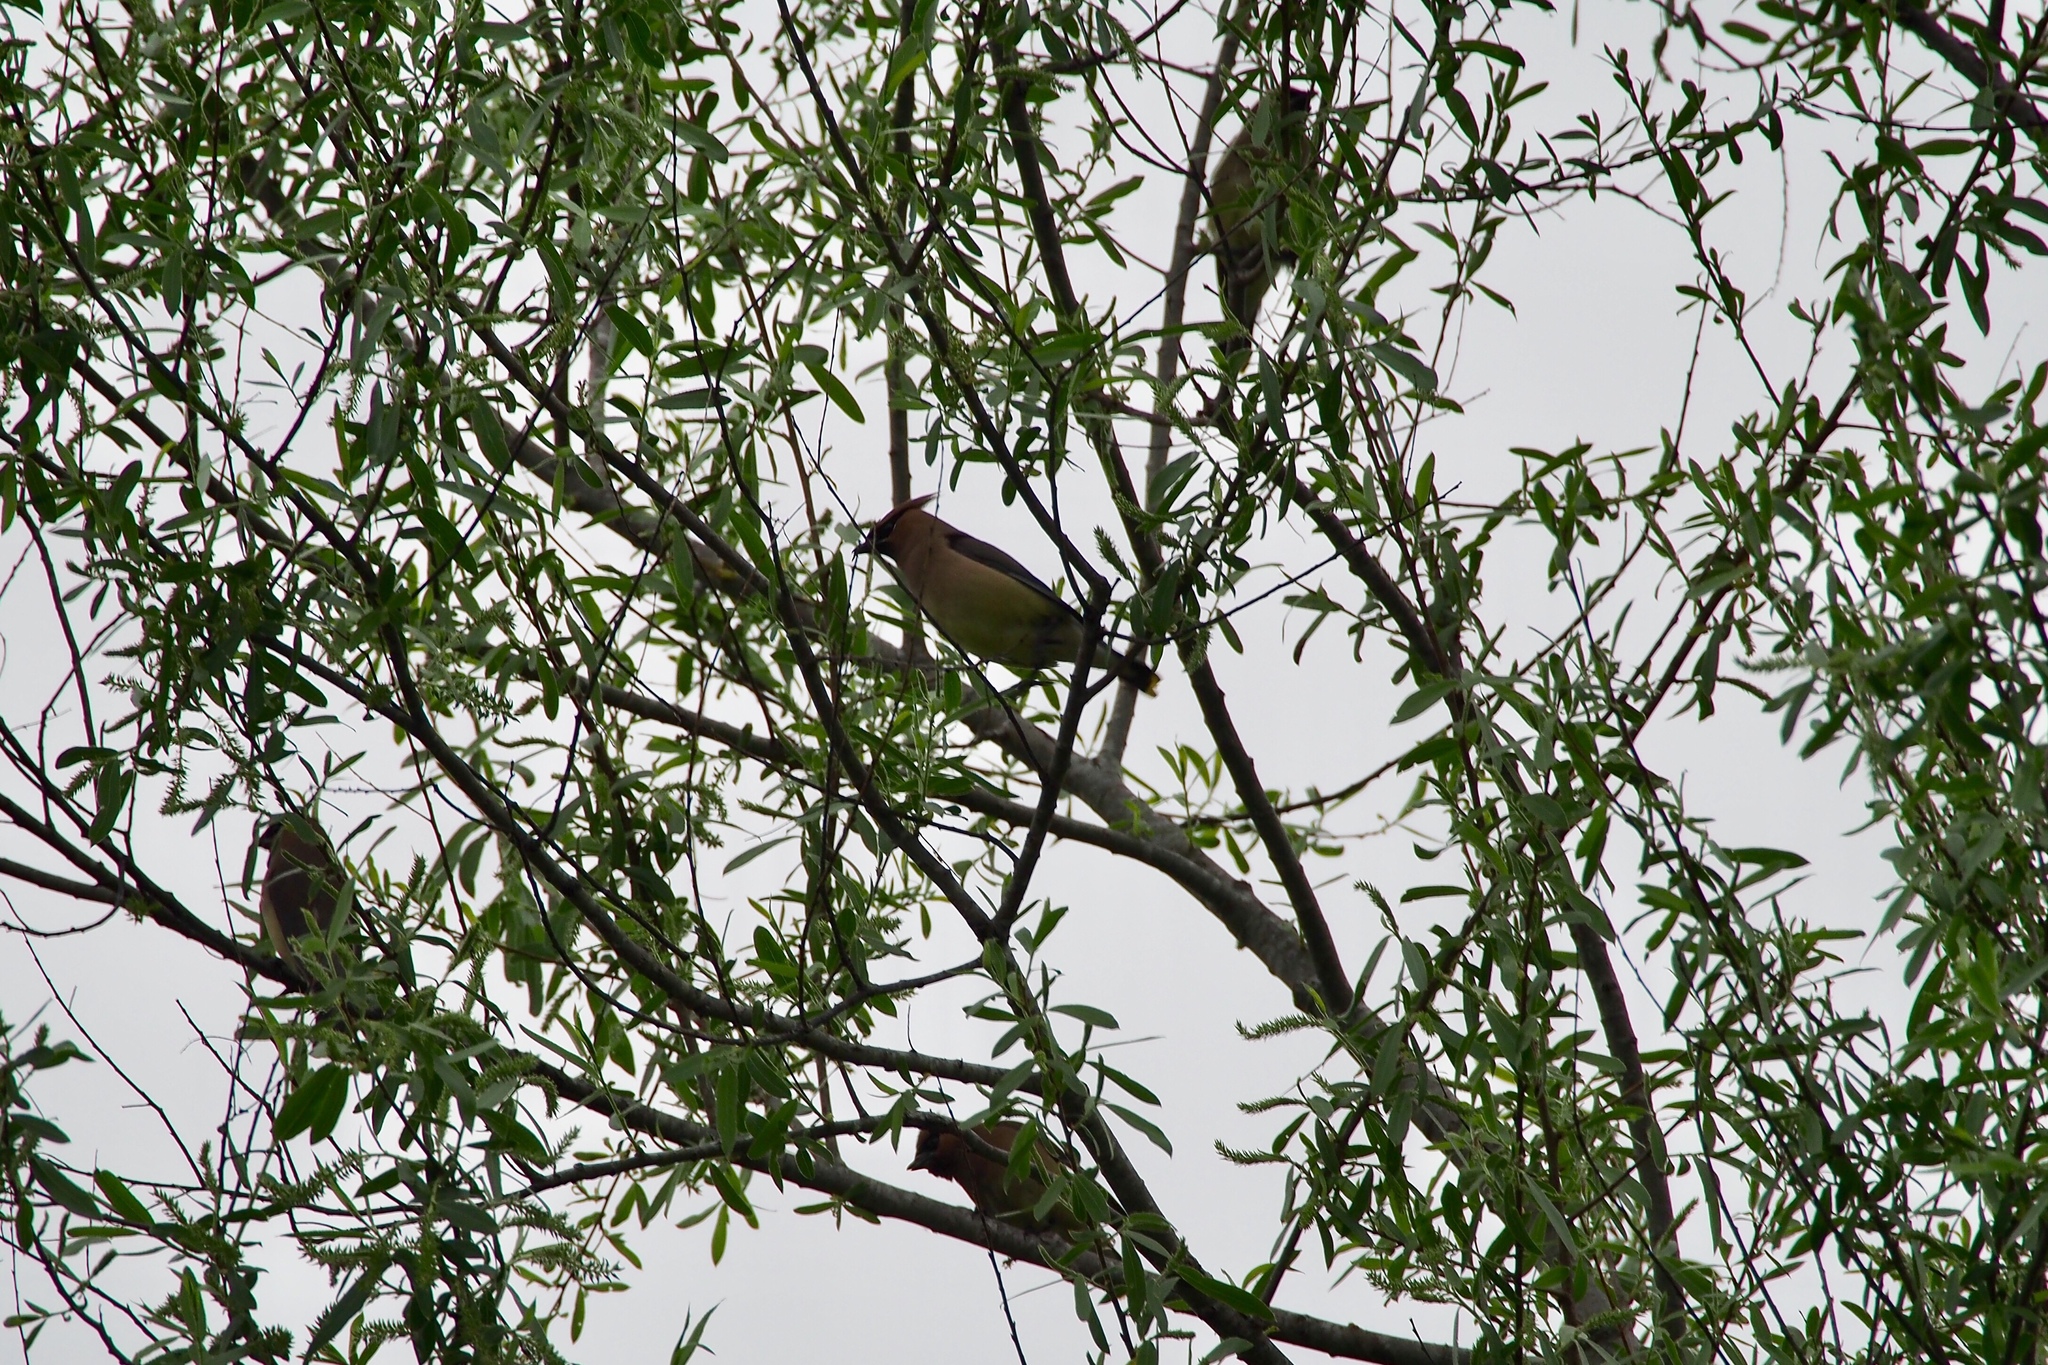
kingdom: Animalia
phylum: Chordata
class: Aves
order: Passeriformes
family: Bombycillidae
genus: Bombycilla
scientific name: Bombycilla cedrorum
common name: Cedar waxwing
